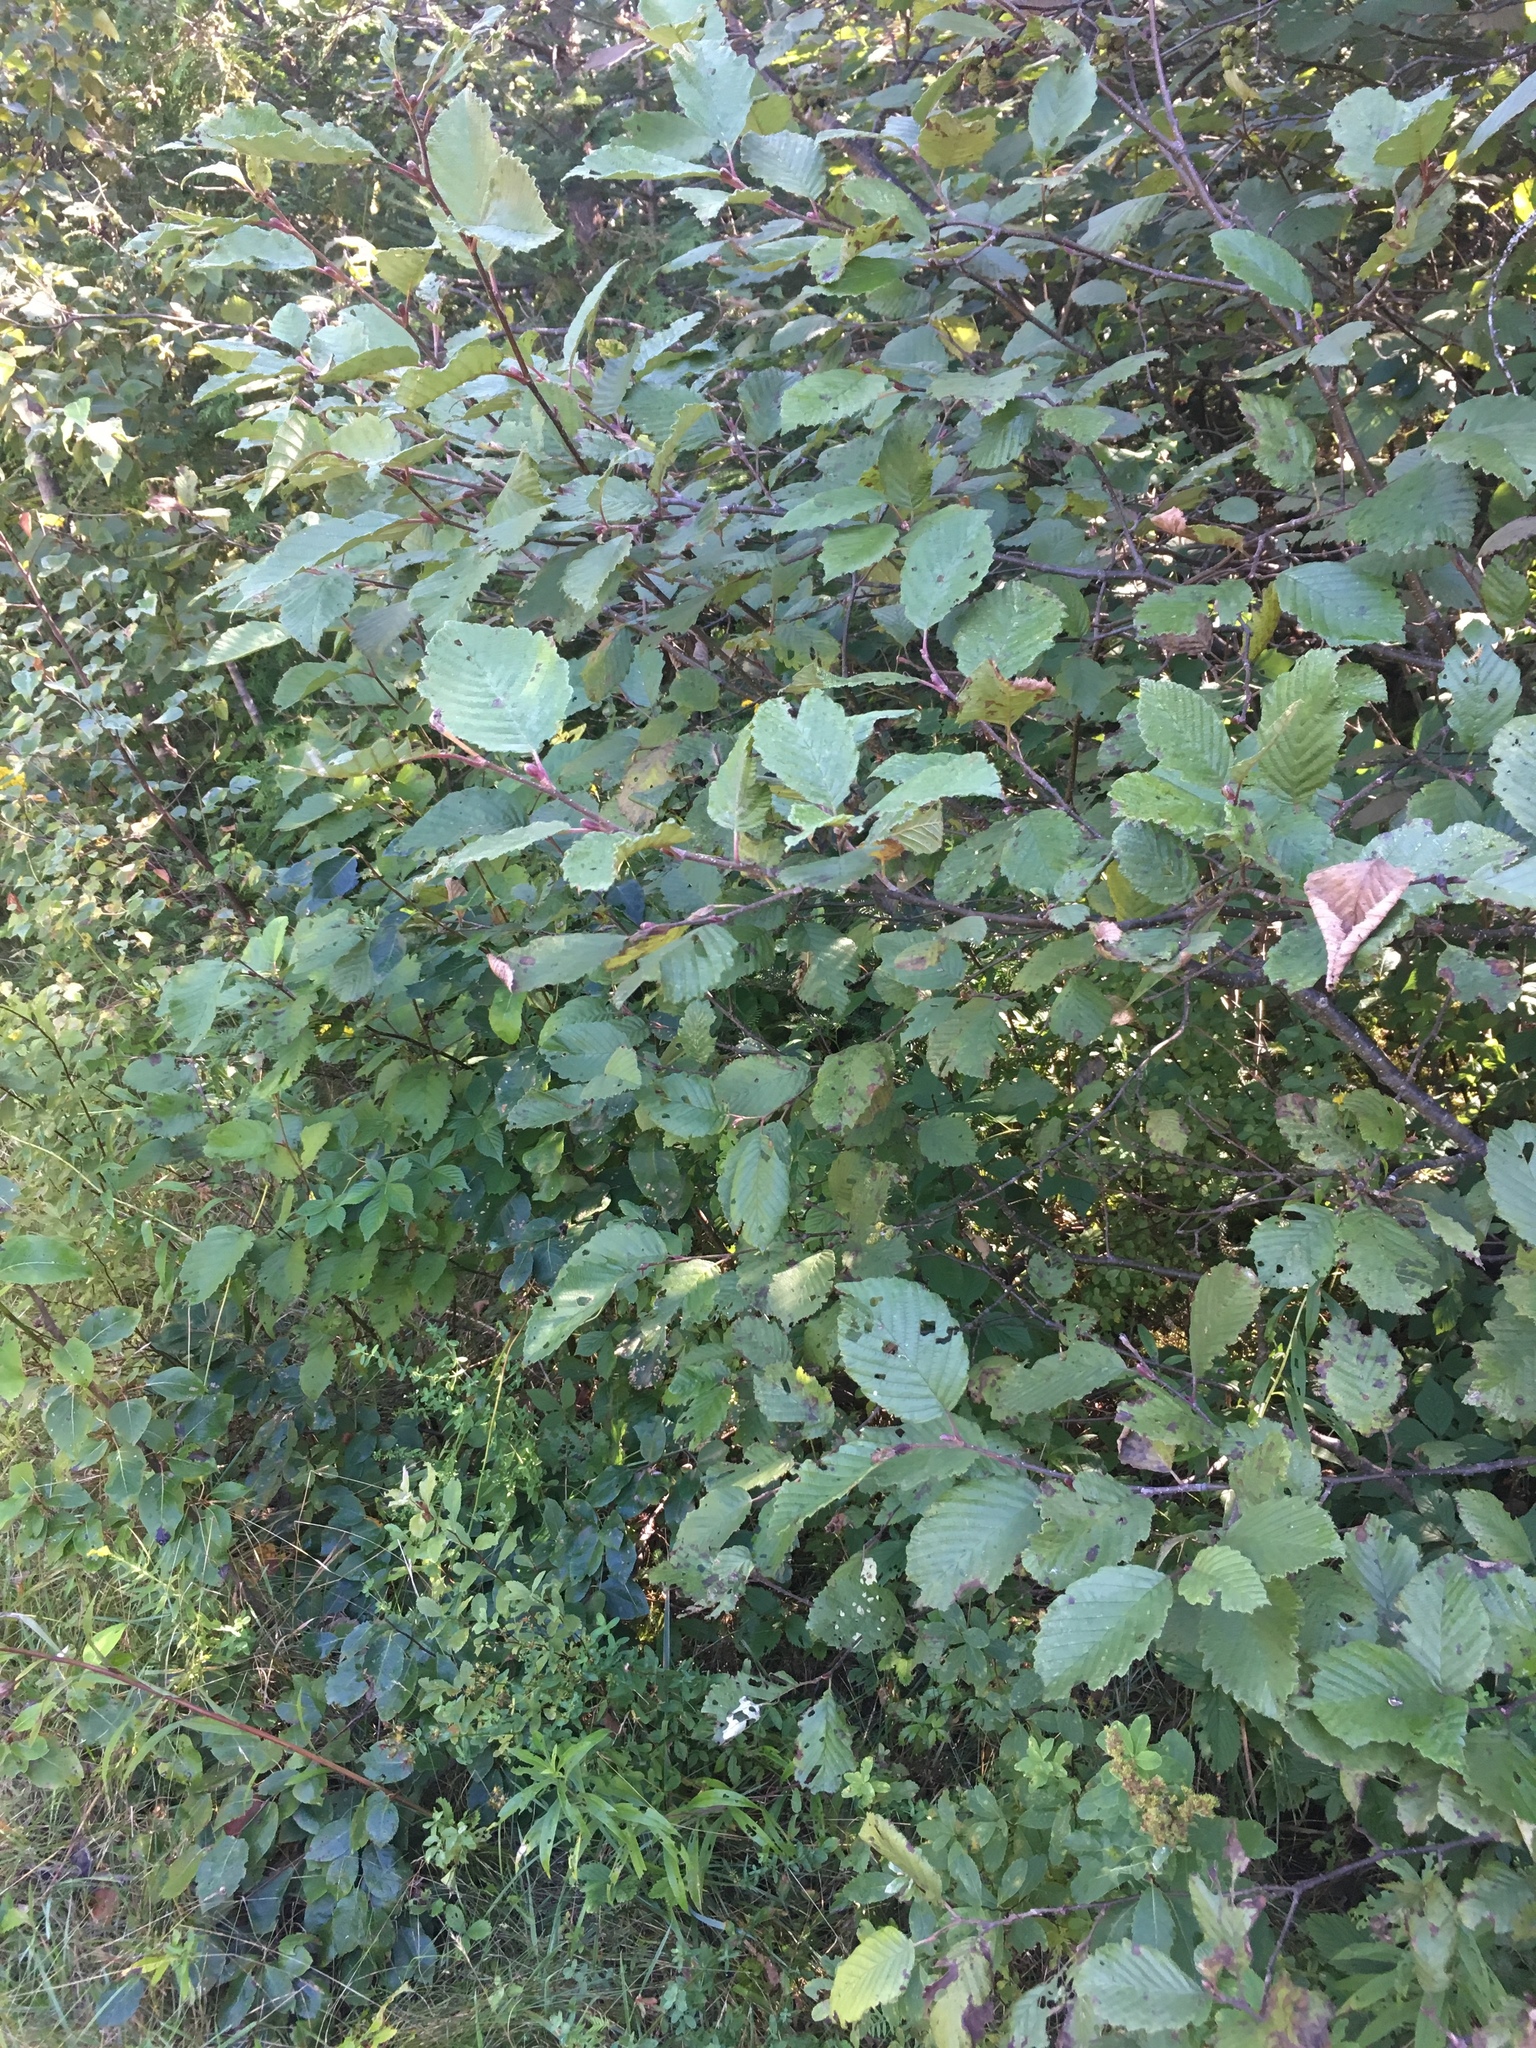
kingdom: Plantae
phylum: Tracheophyta
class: Magnoliopsida
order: Fagales
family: Betulaceae
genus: Alnus
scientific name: Alnus incana
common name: Grey alder
